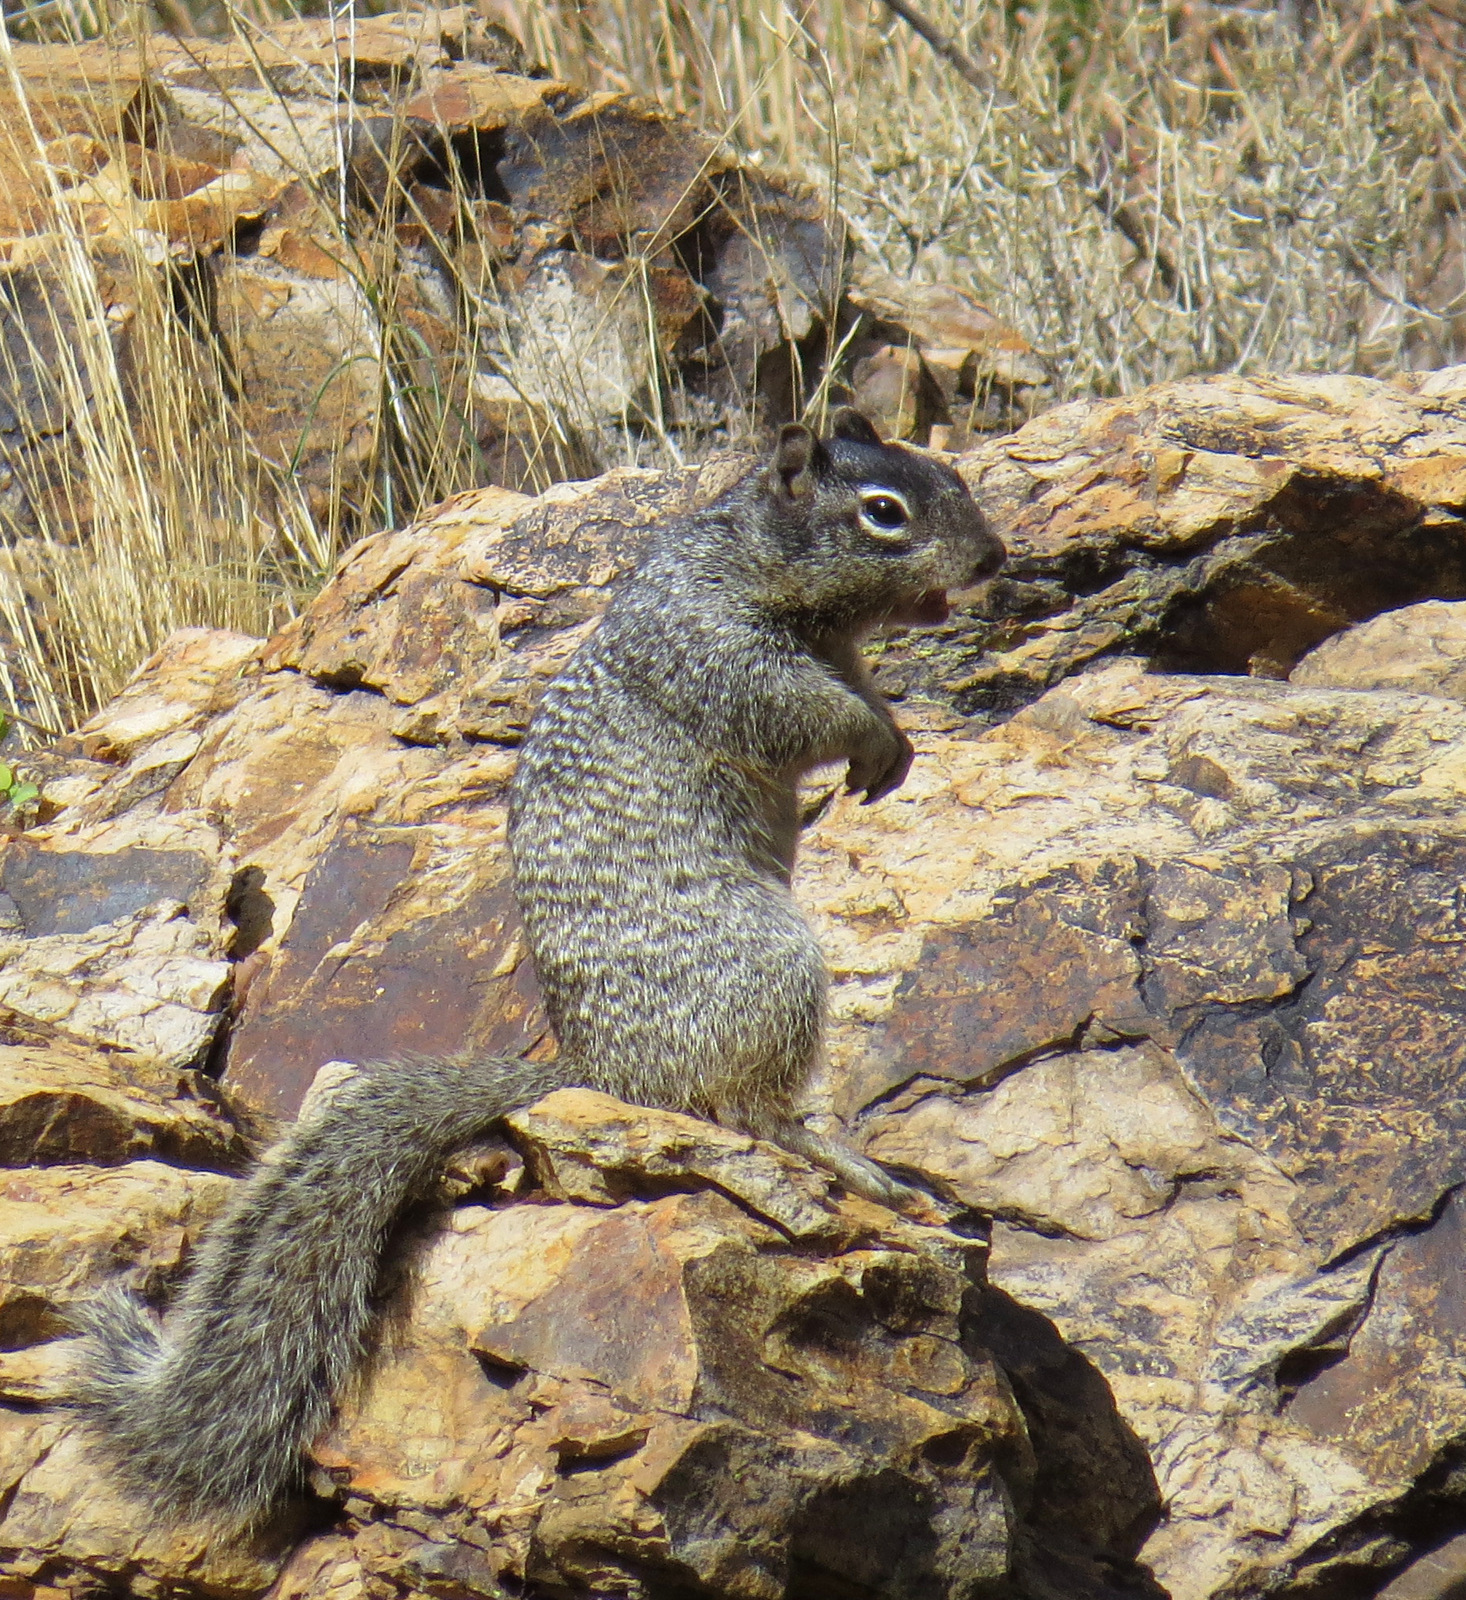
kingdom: Animalia
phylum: Chordata
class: Mammalia
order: Rodentia
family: Sciuridae
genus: Otospermophilus
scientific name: Otospermophilus variegatus
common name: Rock squirrel
